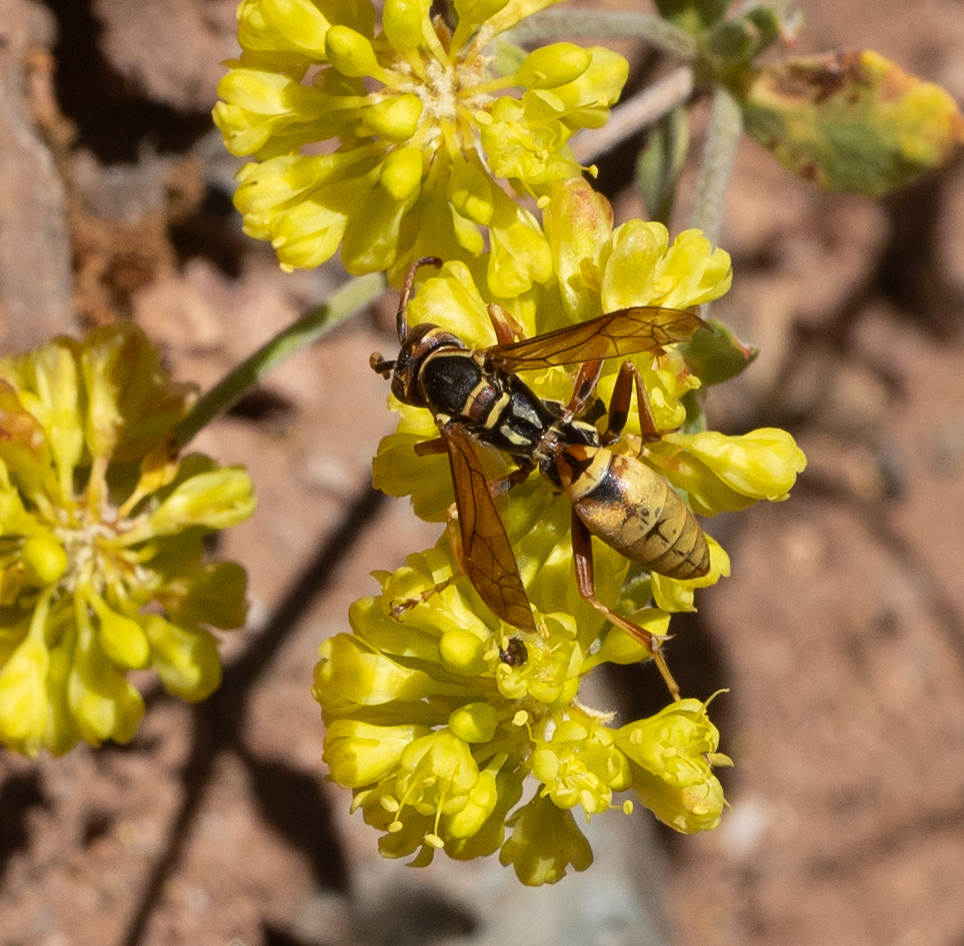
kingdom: Animalia
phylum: Arthropoda
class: Insecta
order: Hymenoptera
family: Eumenidae
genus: Polistes
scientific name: Polistes aurifer
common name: Paper wasp
